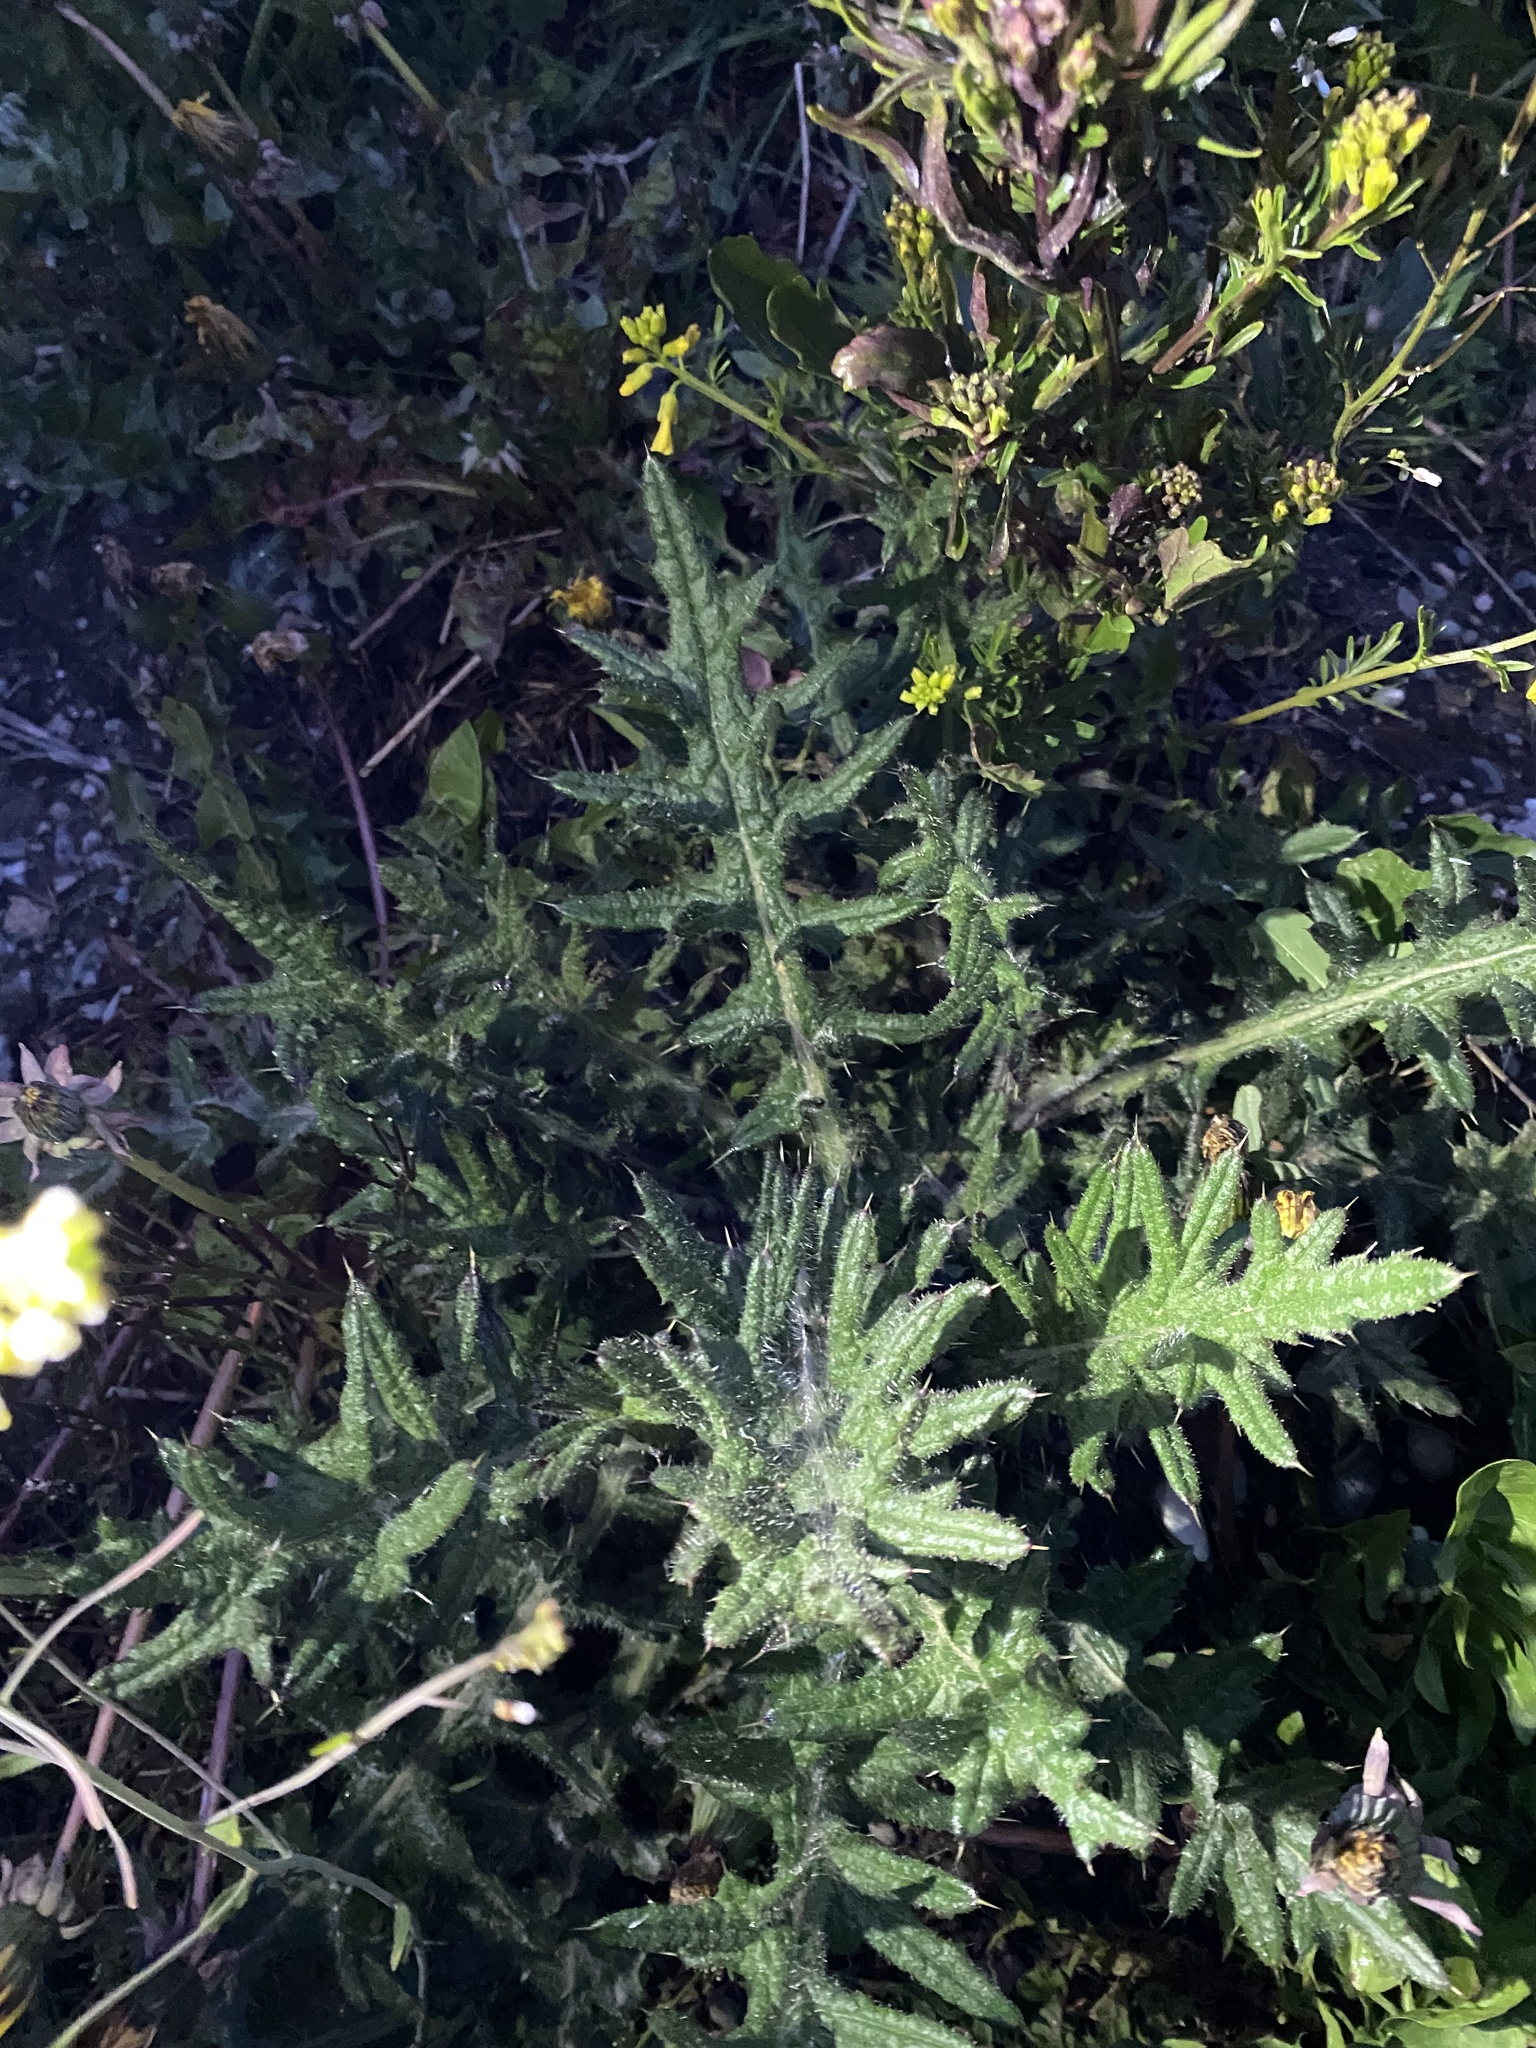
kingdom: Plantae
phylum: Tracheophyta
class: Magnoliopsida
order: Asterales
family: Asteraceae
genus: Cirsium
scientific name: Cirsium vulgare
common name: Bull thistle
